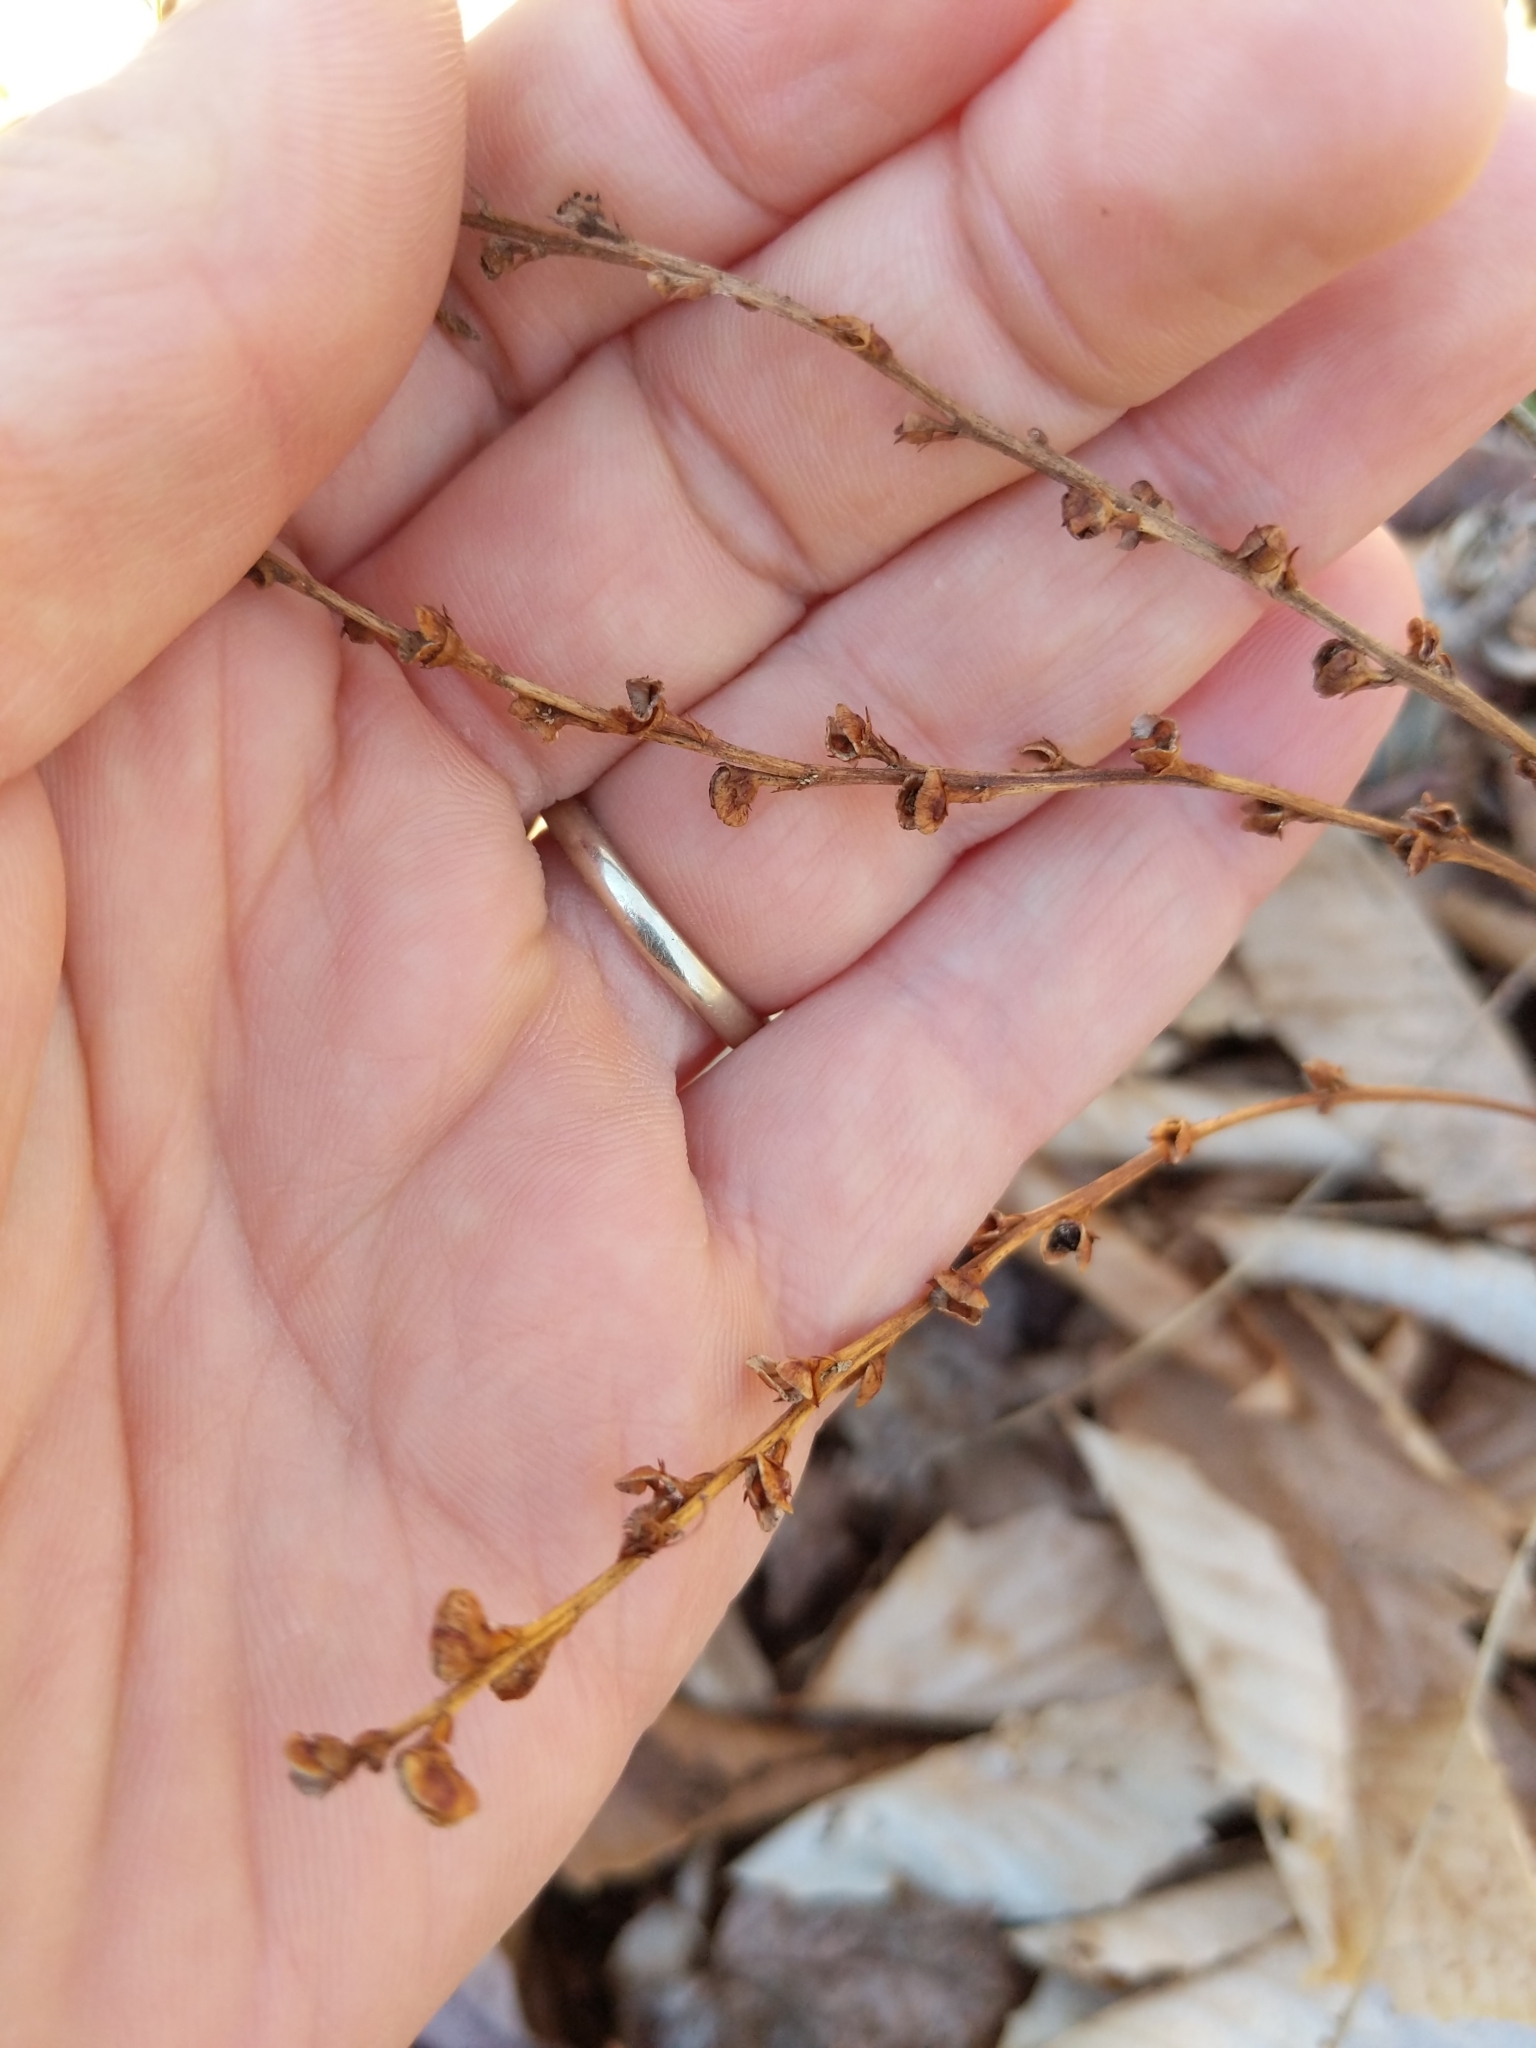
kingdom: Plantae
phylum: Tracheophyta
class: Magnoliopsida
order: Lamiales
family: Orobanchaceae
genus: Epifagus
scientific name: Epifagus virginiana
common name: Beechdrops
